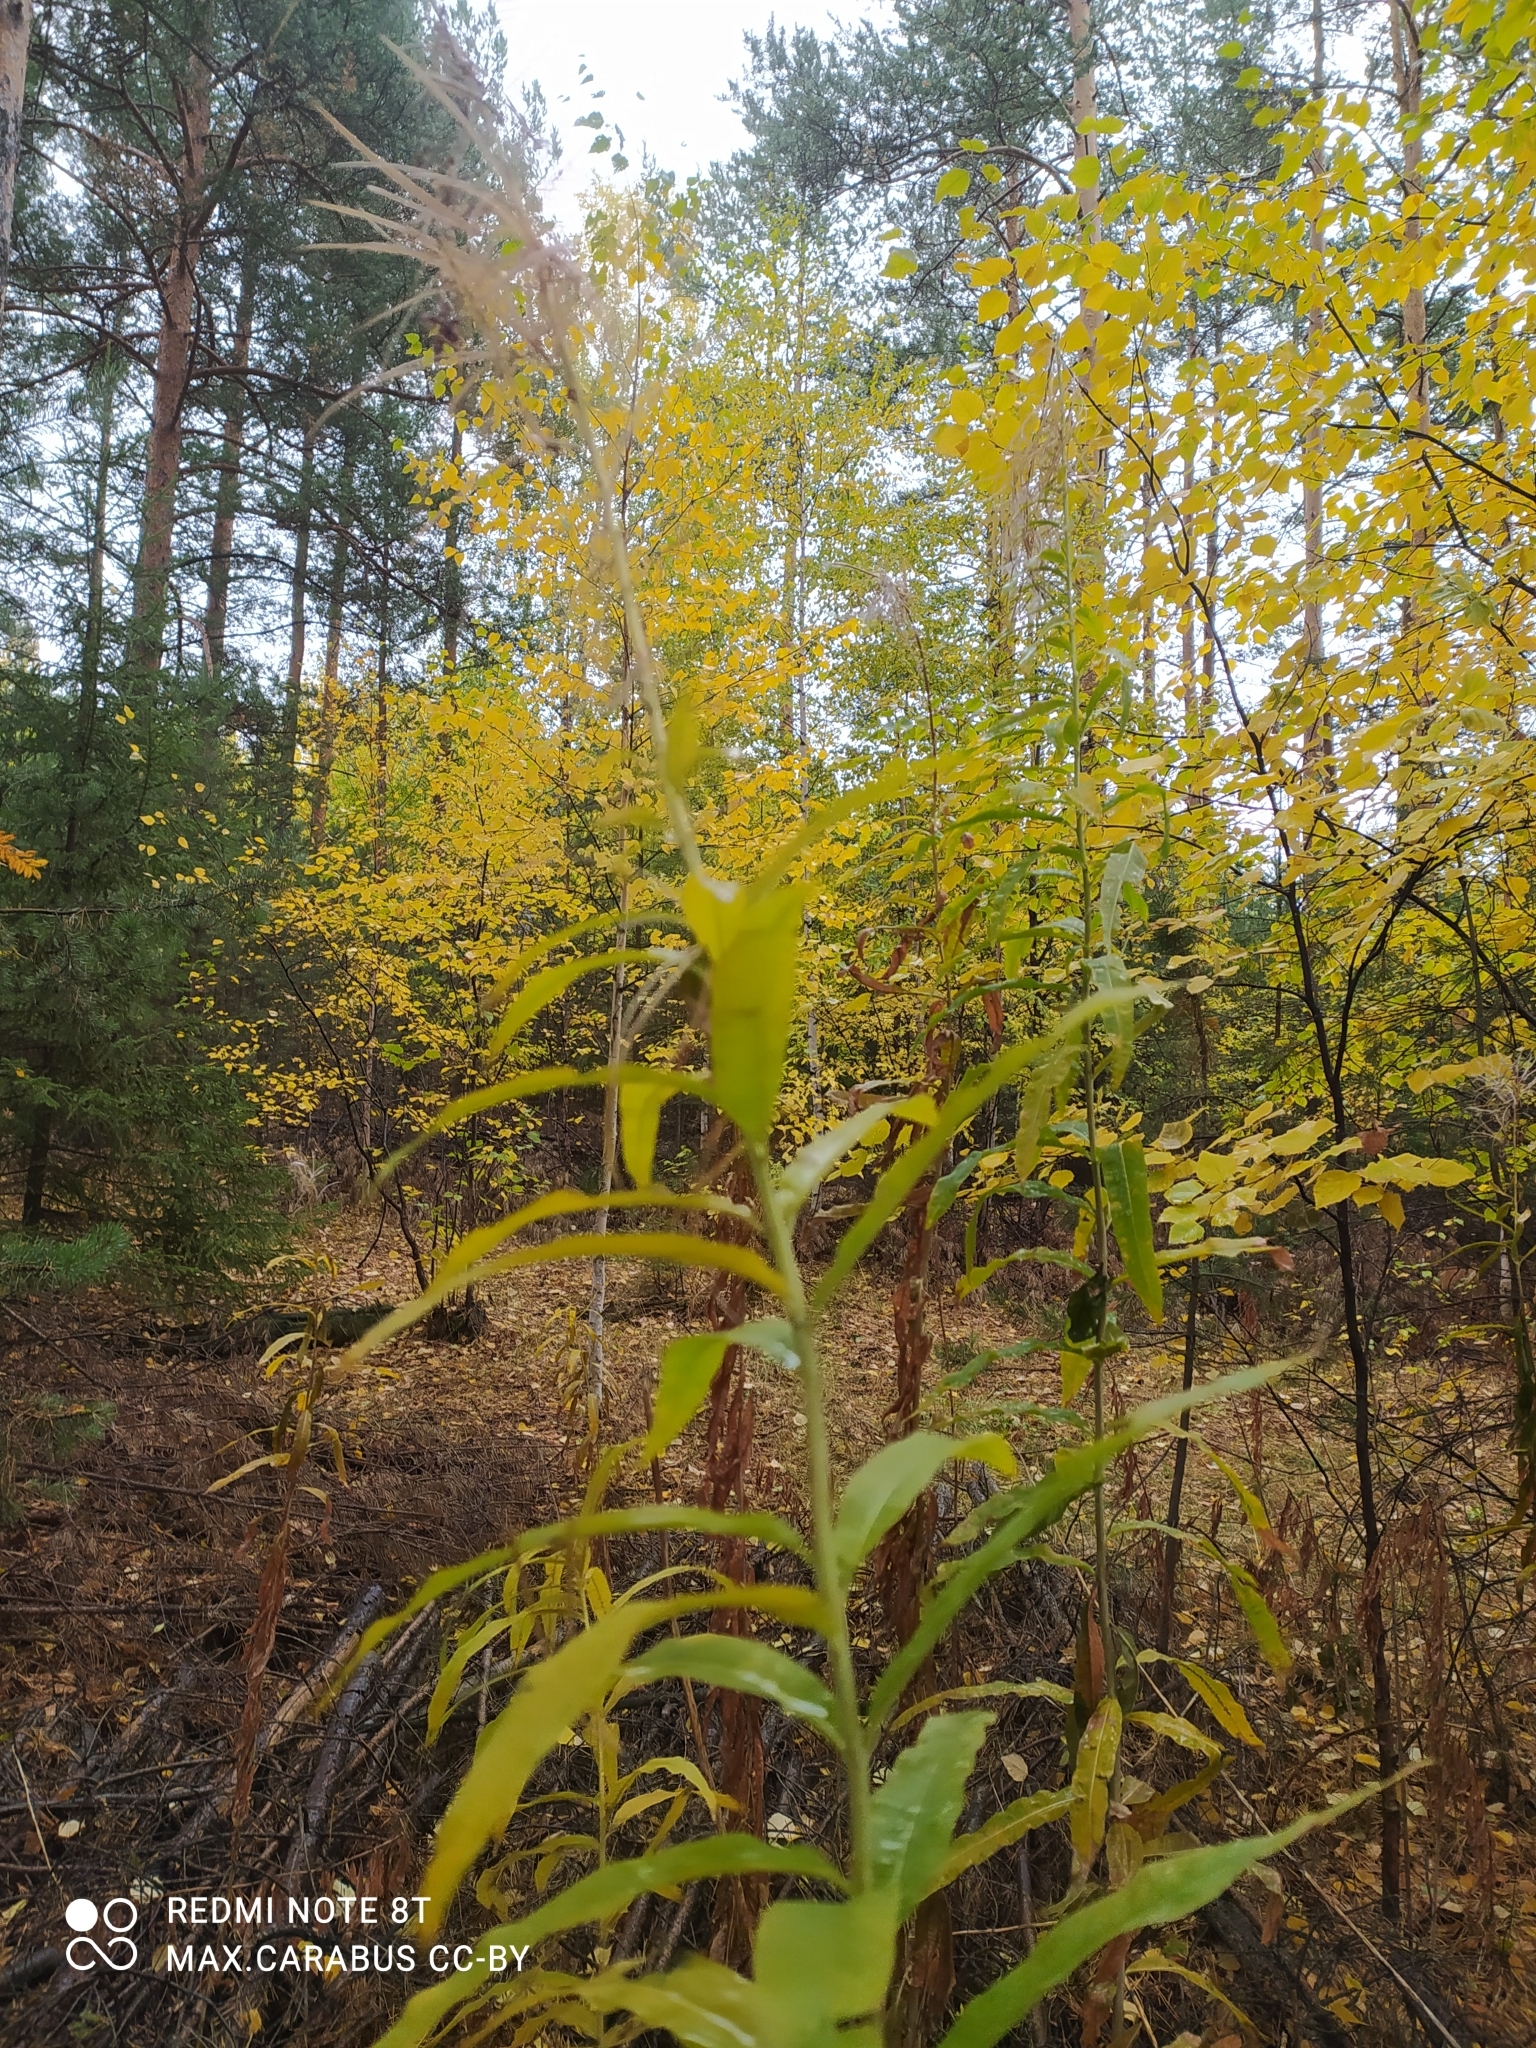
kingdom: Plantae
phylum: Tracheophyta
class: Magnoliopsida
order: Myrtales
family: Onagraceae
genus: Chamaenerion
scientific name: Chamaenerion angustifolium
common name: Fireweed
